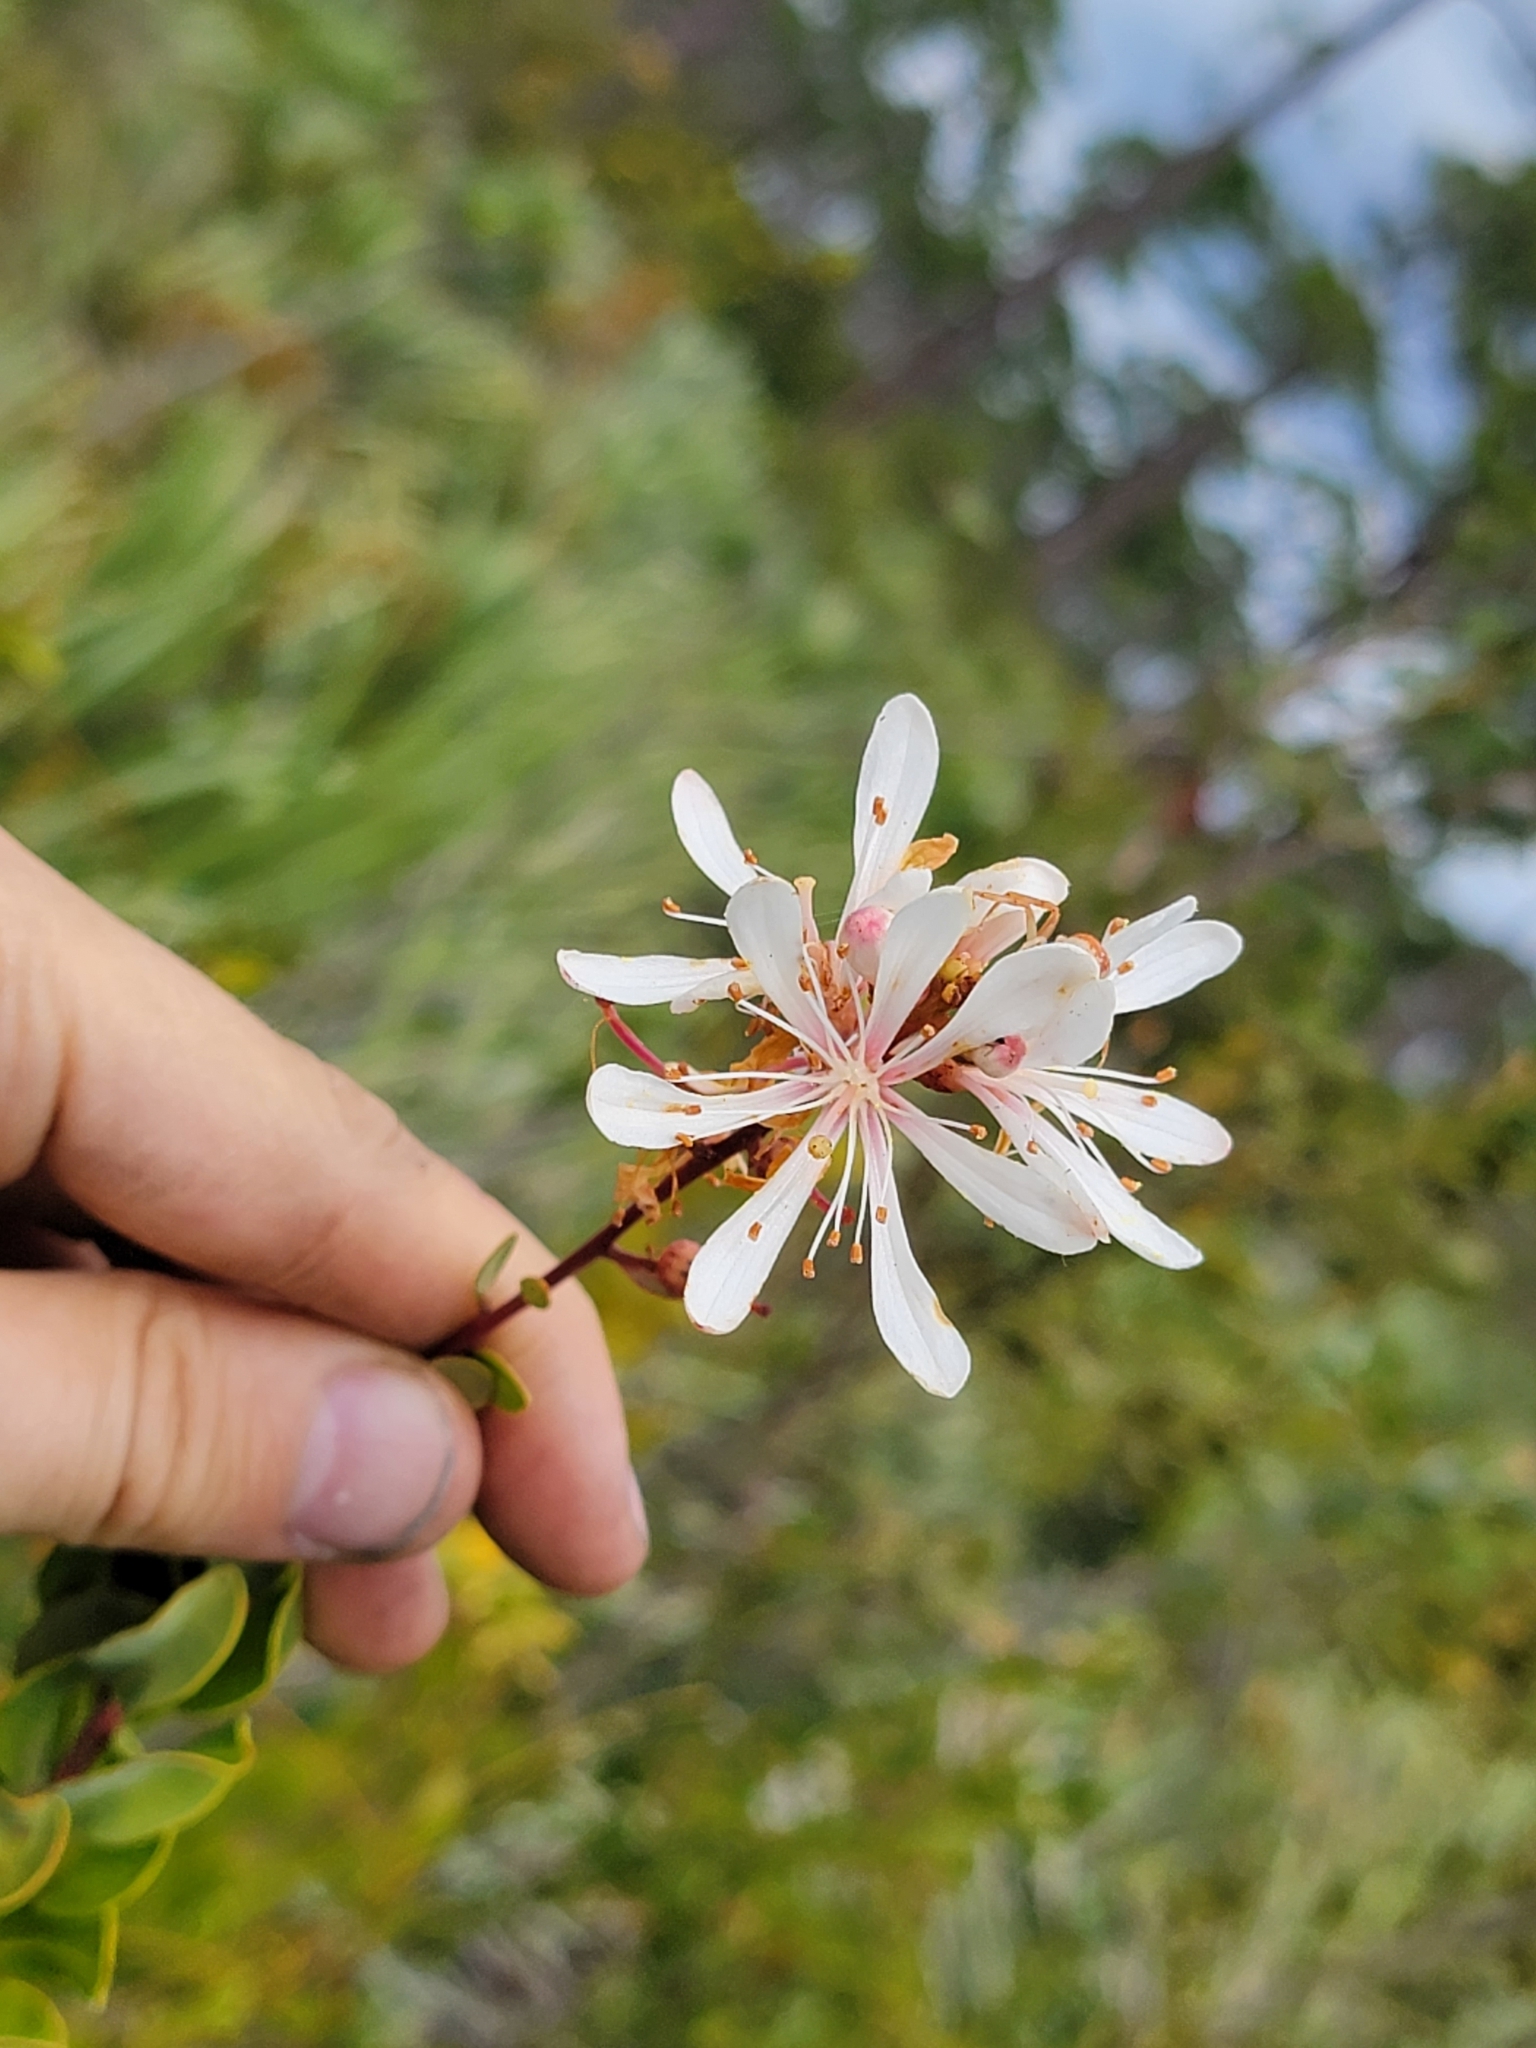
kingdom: Plantae
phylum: Tracheophyta
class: Magnoliopsida
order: Ericales
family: Ericaceae
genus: Bejaria
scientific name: Bejaria racemosa
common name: Tarflower
